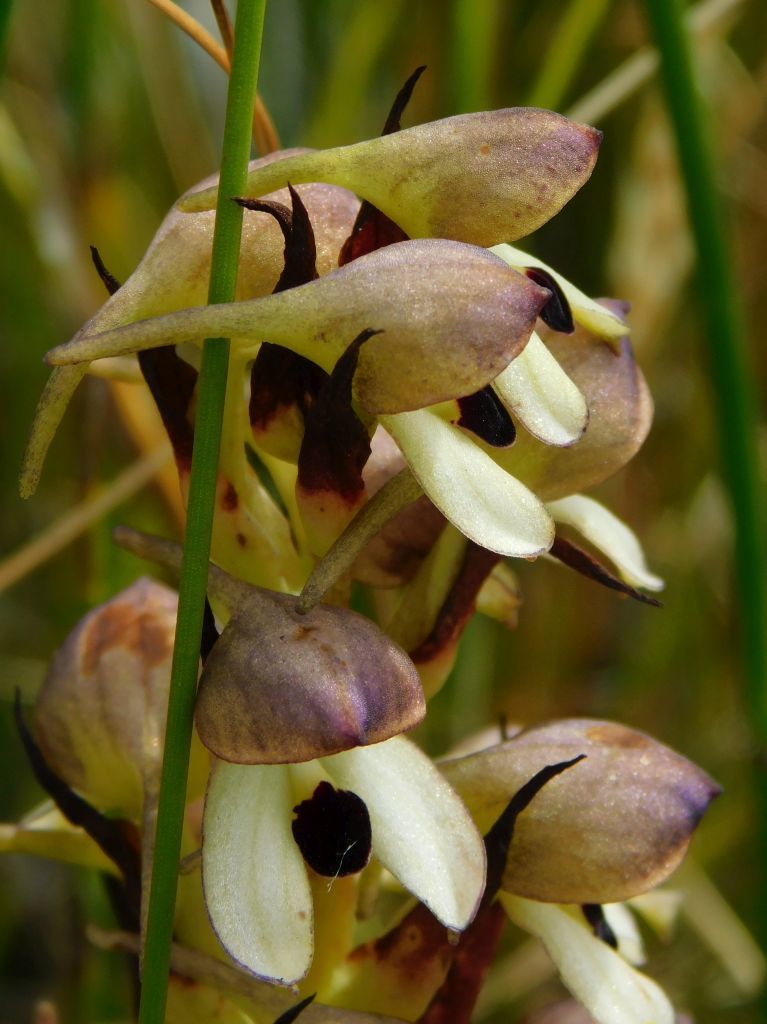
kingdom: Plantae
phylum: Tracheophyta
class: Liliopsida
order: Asparagales
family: Orchidaceae
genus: Disa
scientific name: Disa cornuta
